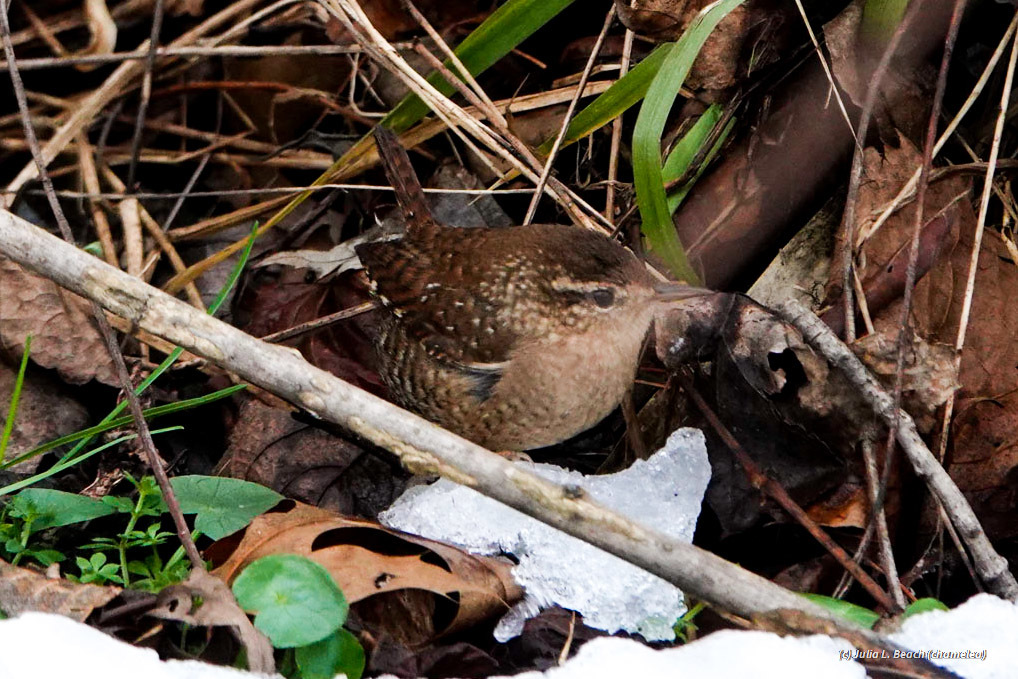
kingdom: Animalia
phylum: Chordata
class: Aves
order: Passeriformes
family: Troglodytidae
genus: Troglodytes
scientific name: Troglodytes hiemalis
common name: Winter wren
